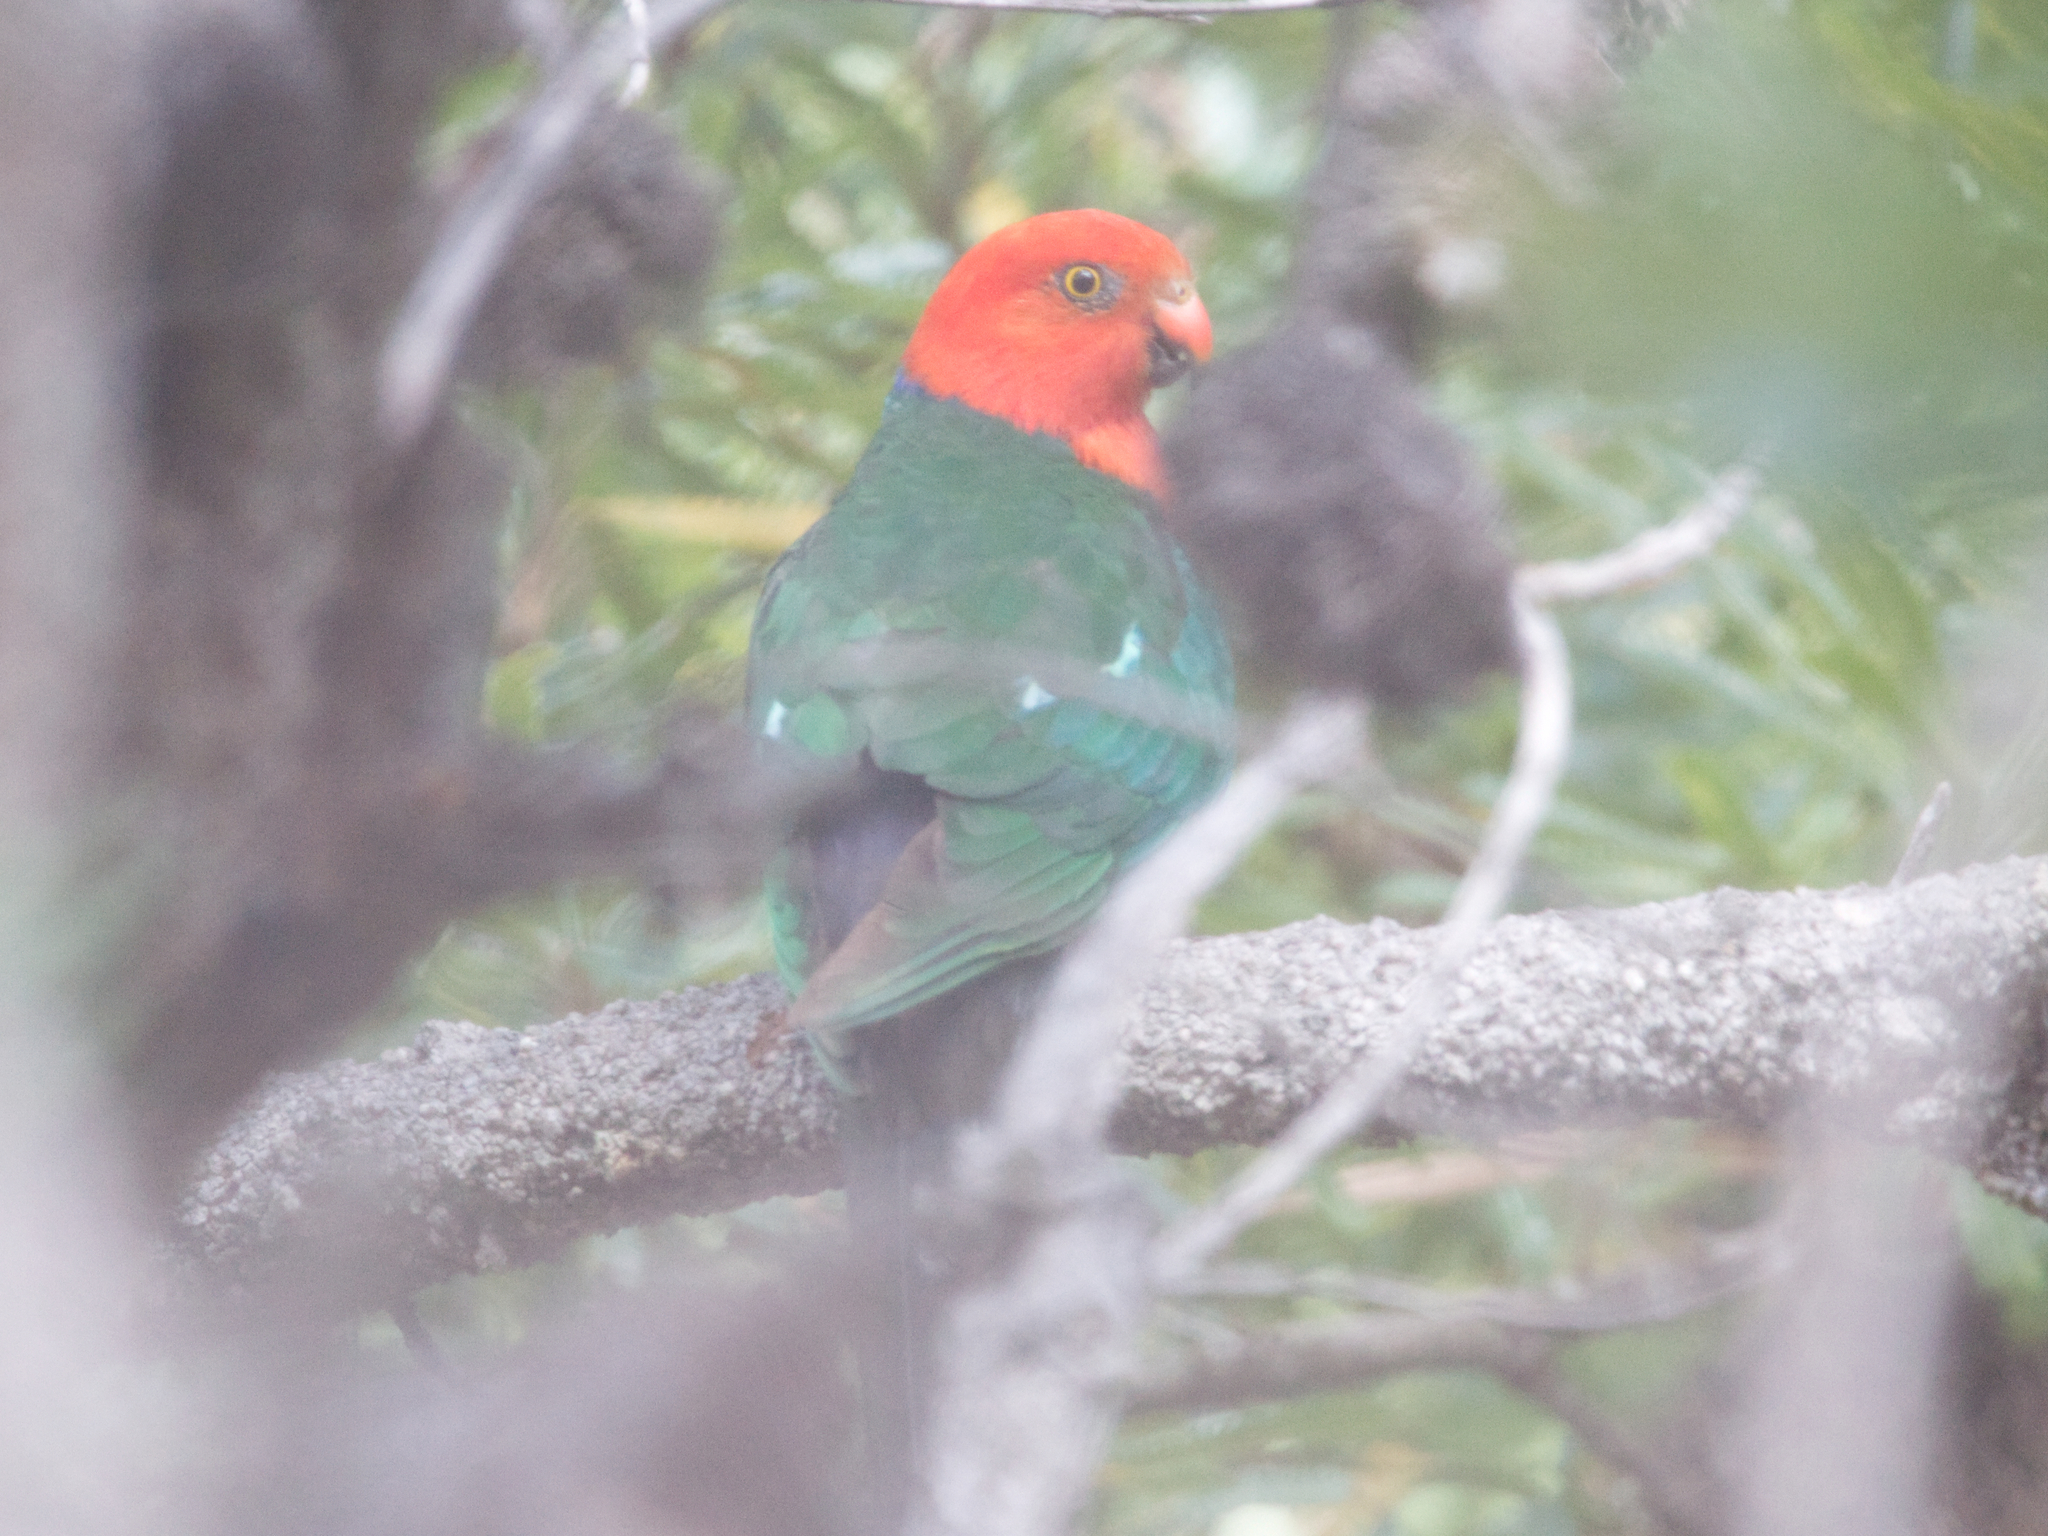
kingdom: Animalia
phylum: Chordata
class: Aves
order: Psittaciformes
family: Psittacidae
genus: Alisterus
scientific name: Alisterus scapularis
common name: Australian king parrot
